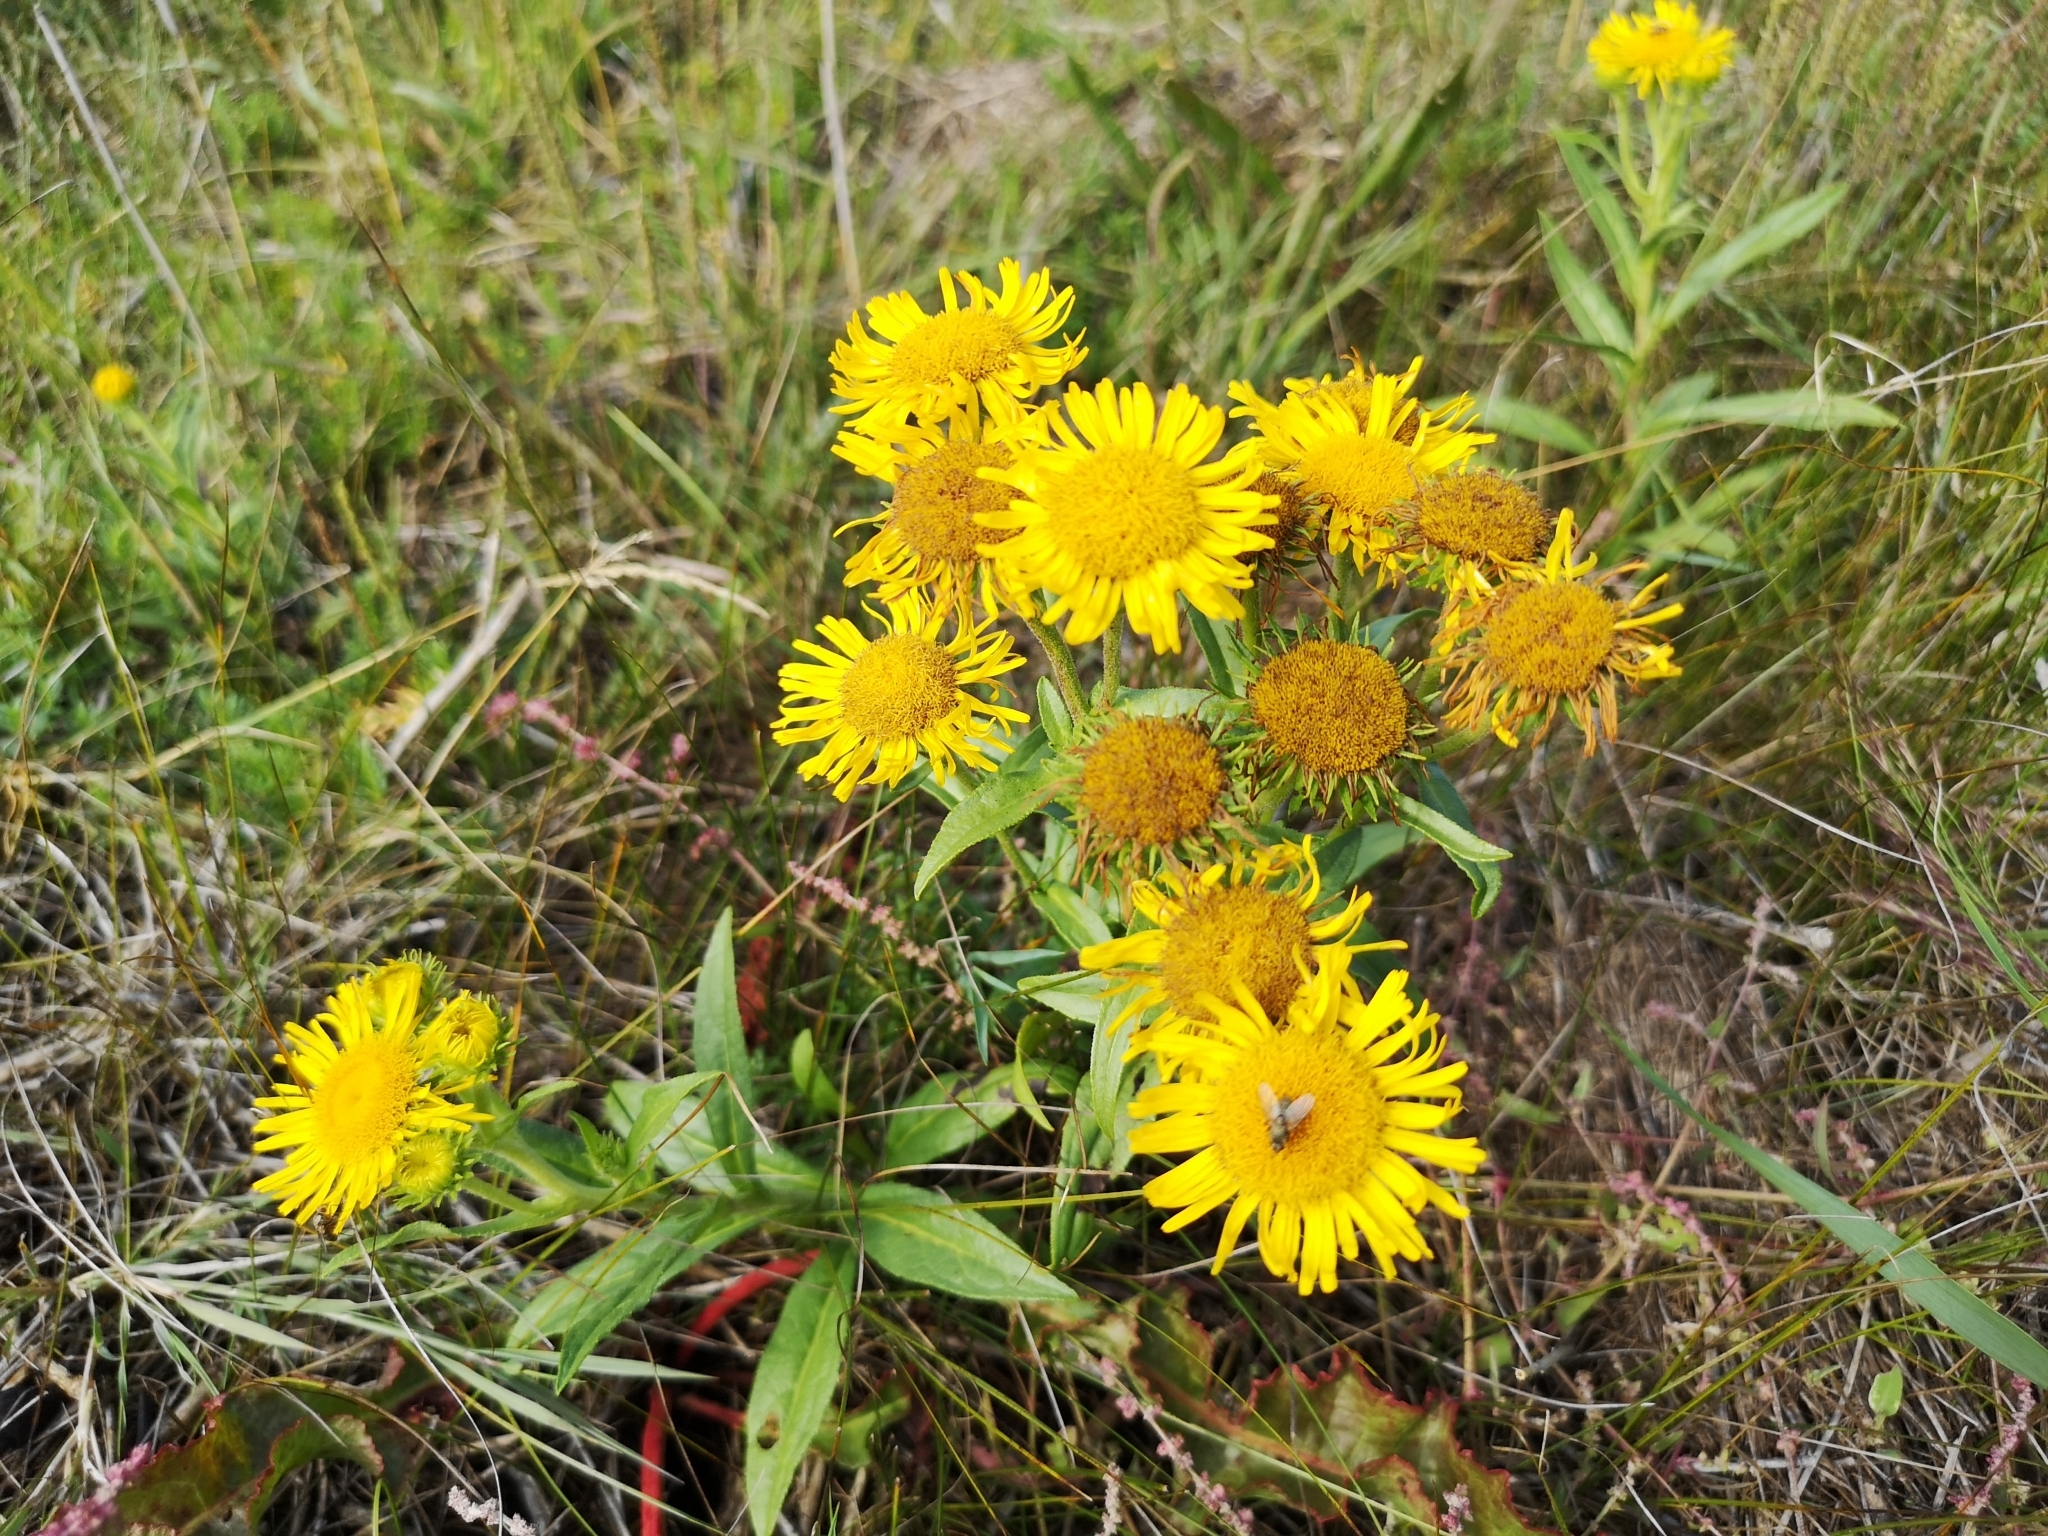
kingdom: Plantae
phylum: Tracheophyta
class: Magnoliopsida
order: Asterales
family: Asteraceae
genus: Pentanema
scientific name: Pentanema britannicum
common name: British elecampane
